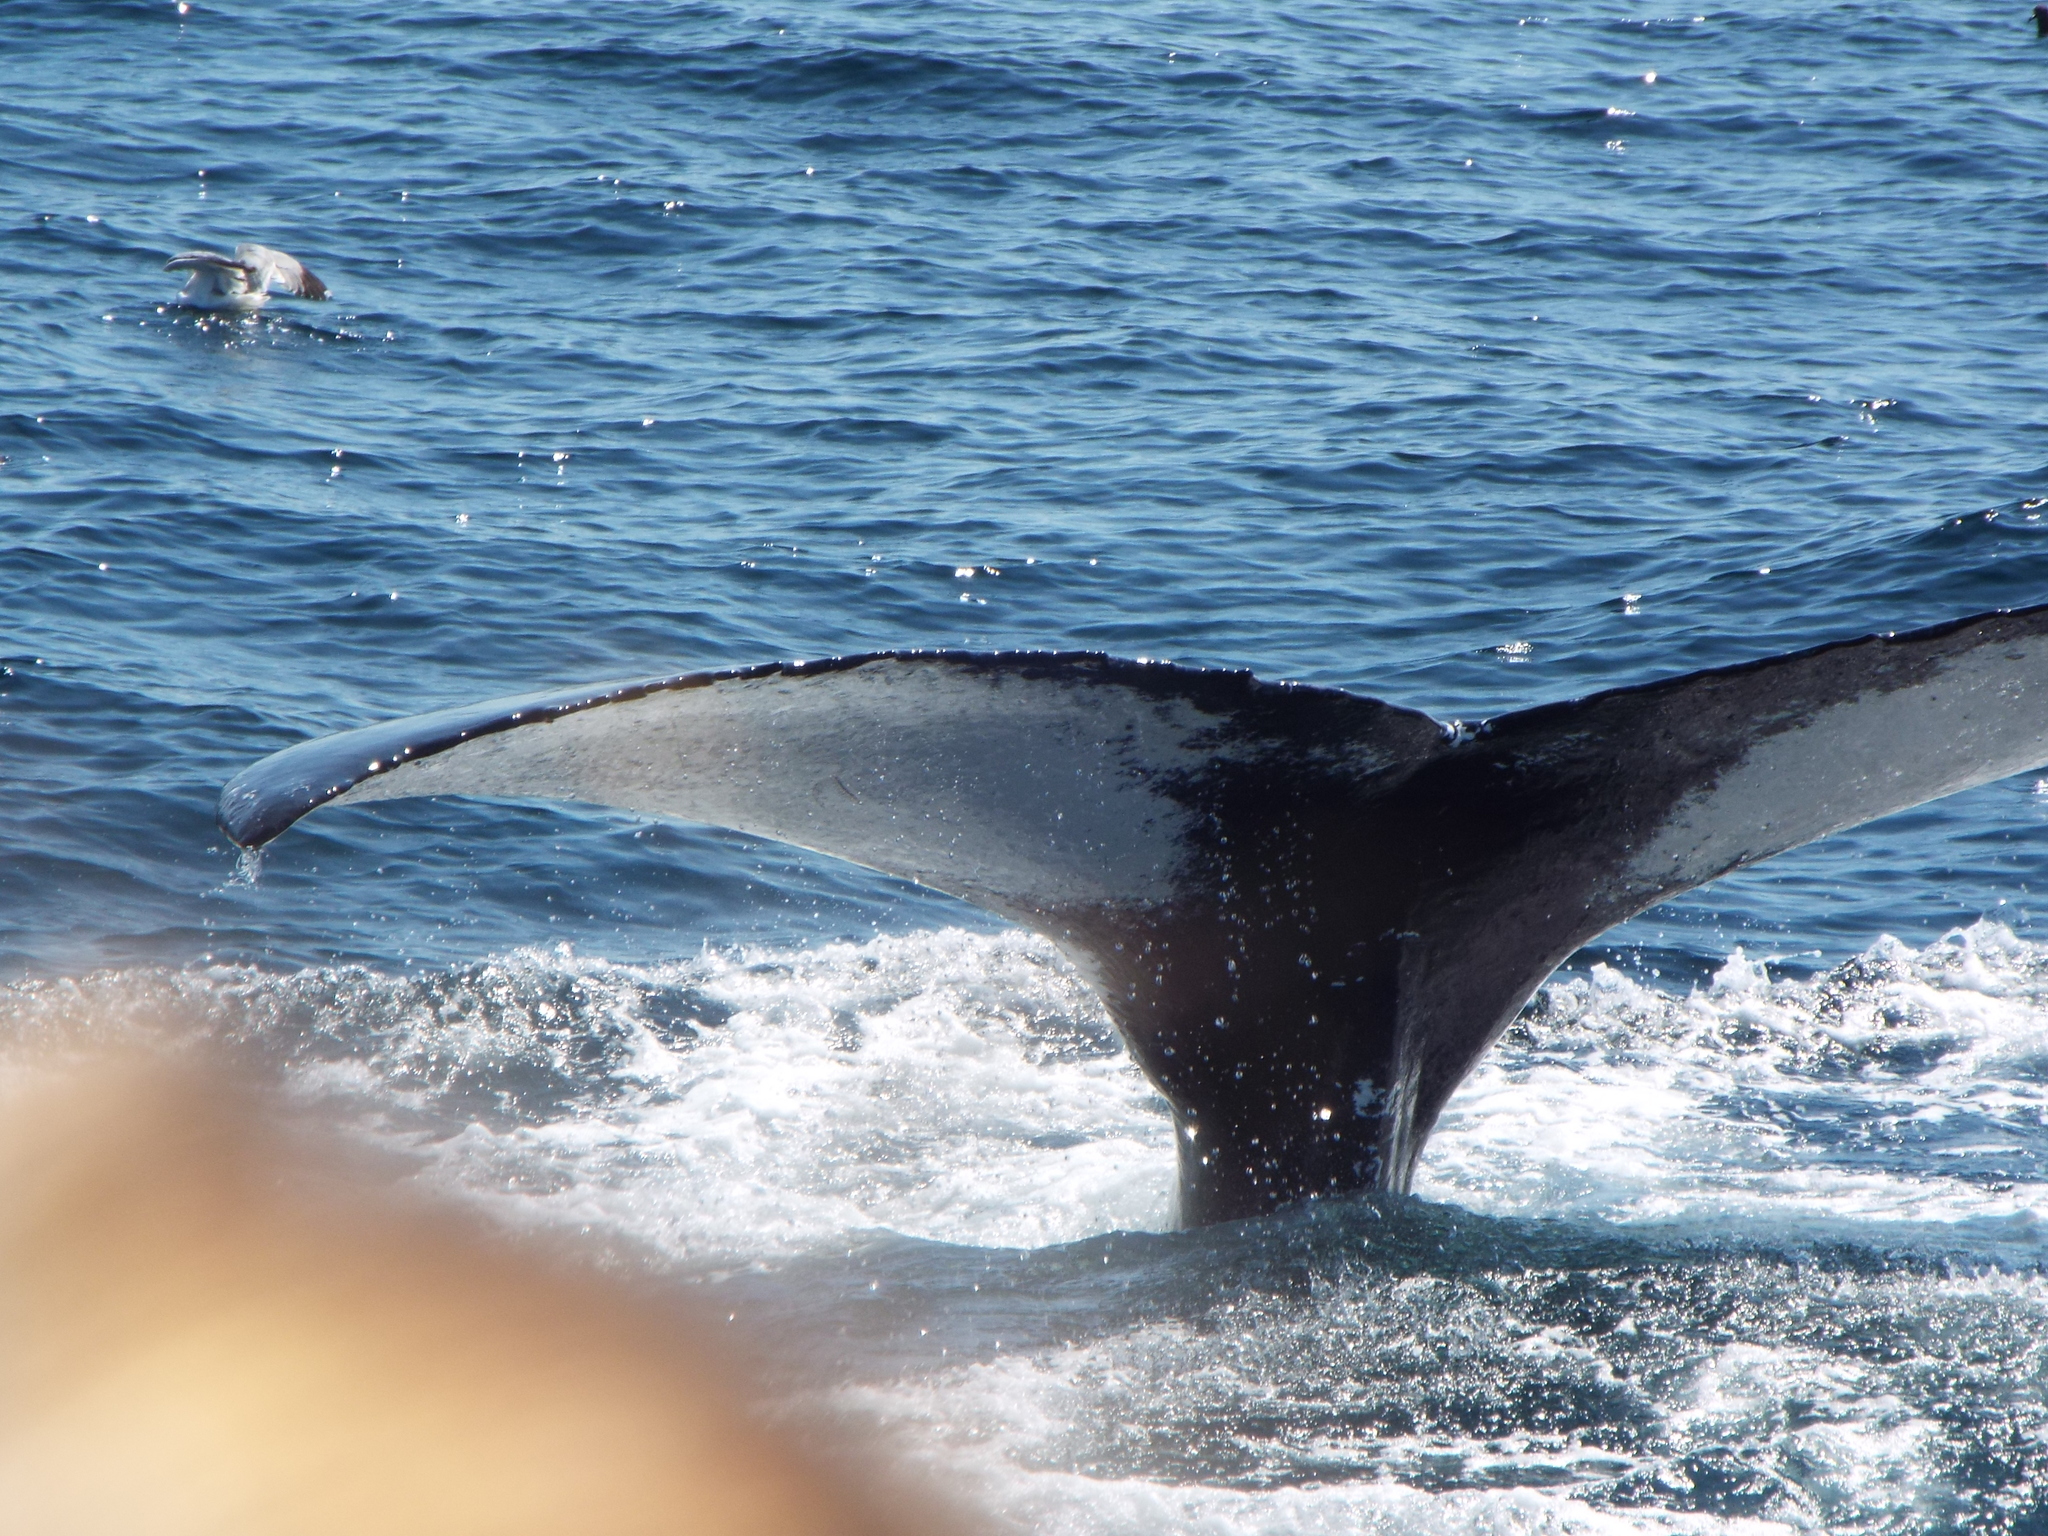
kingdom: Animalia
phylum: Chordata
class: Mammalia
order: Cetacea
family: Balaenopteridae
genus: Megaptera
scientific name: Megaptera novaeangliae
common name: Humpback whale
